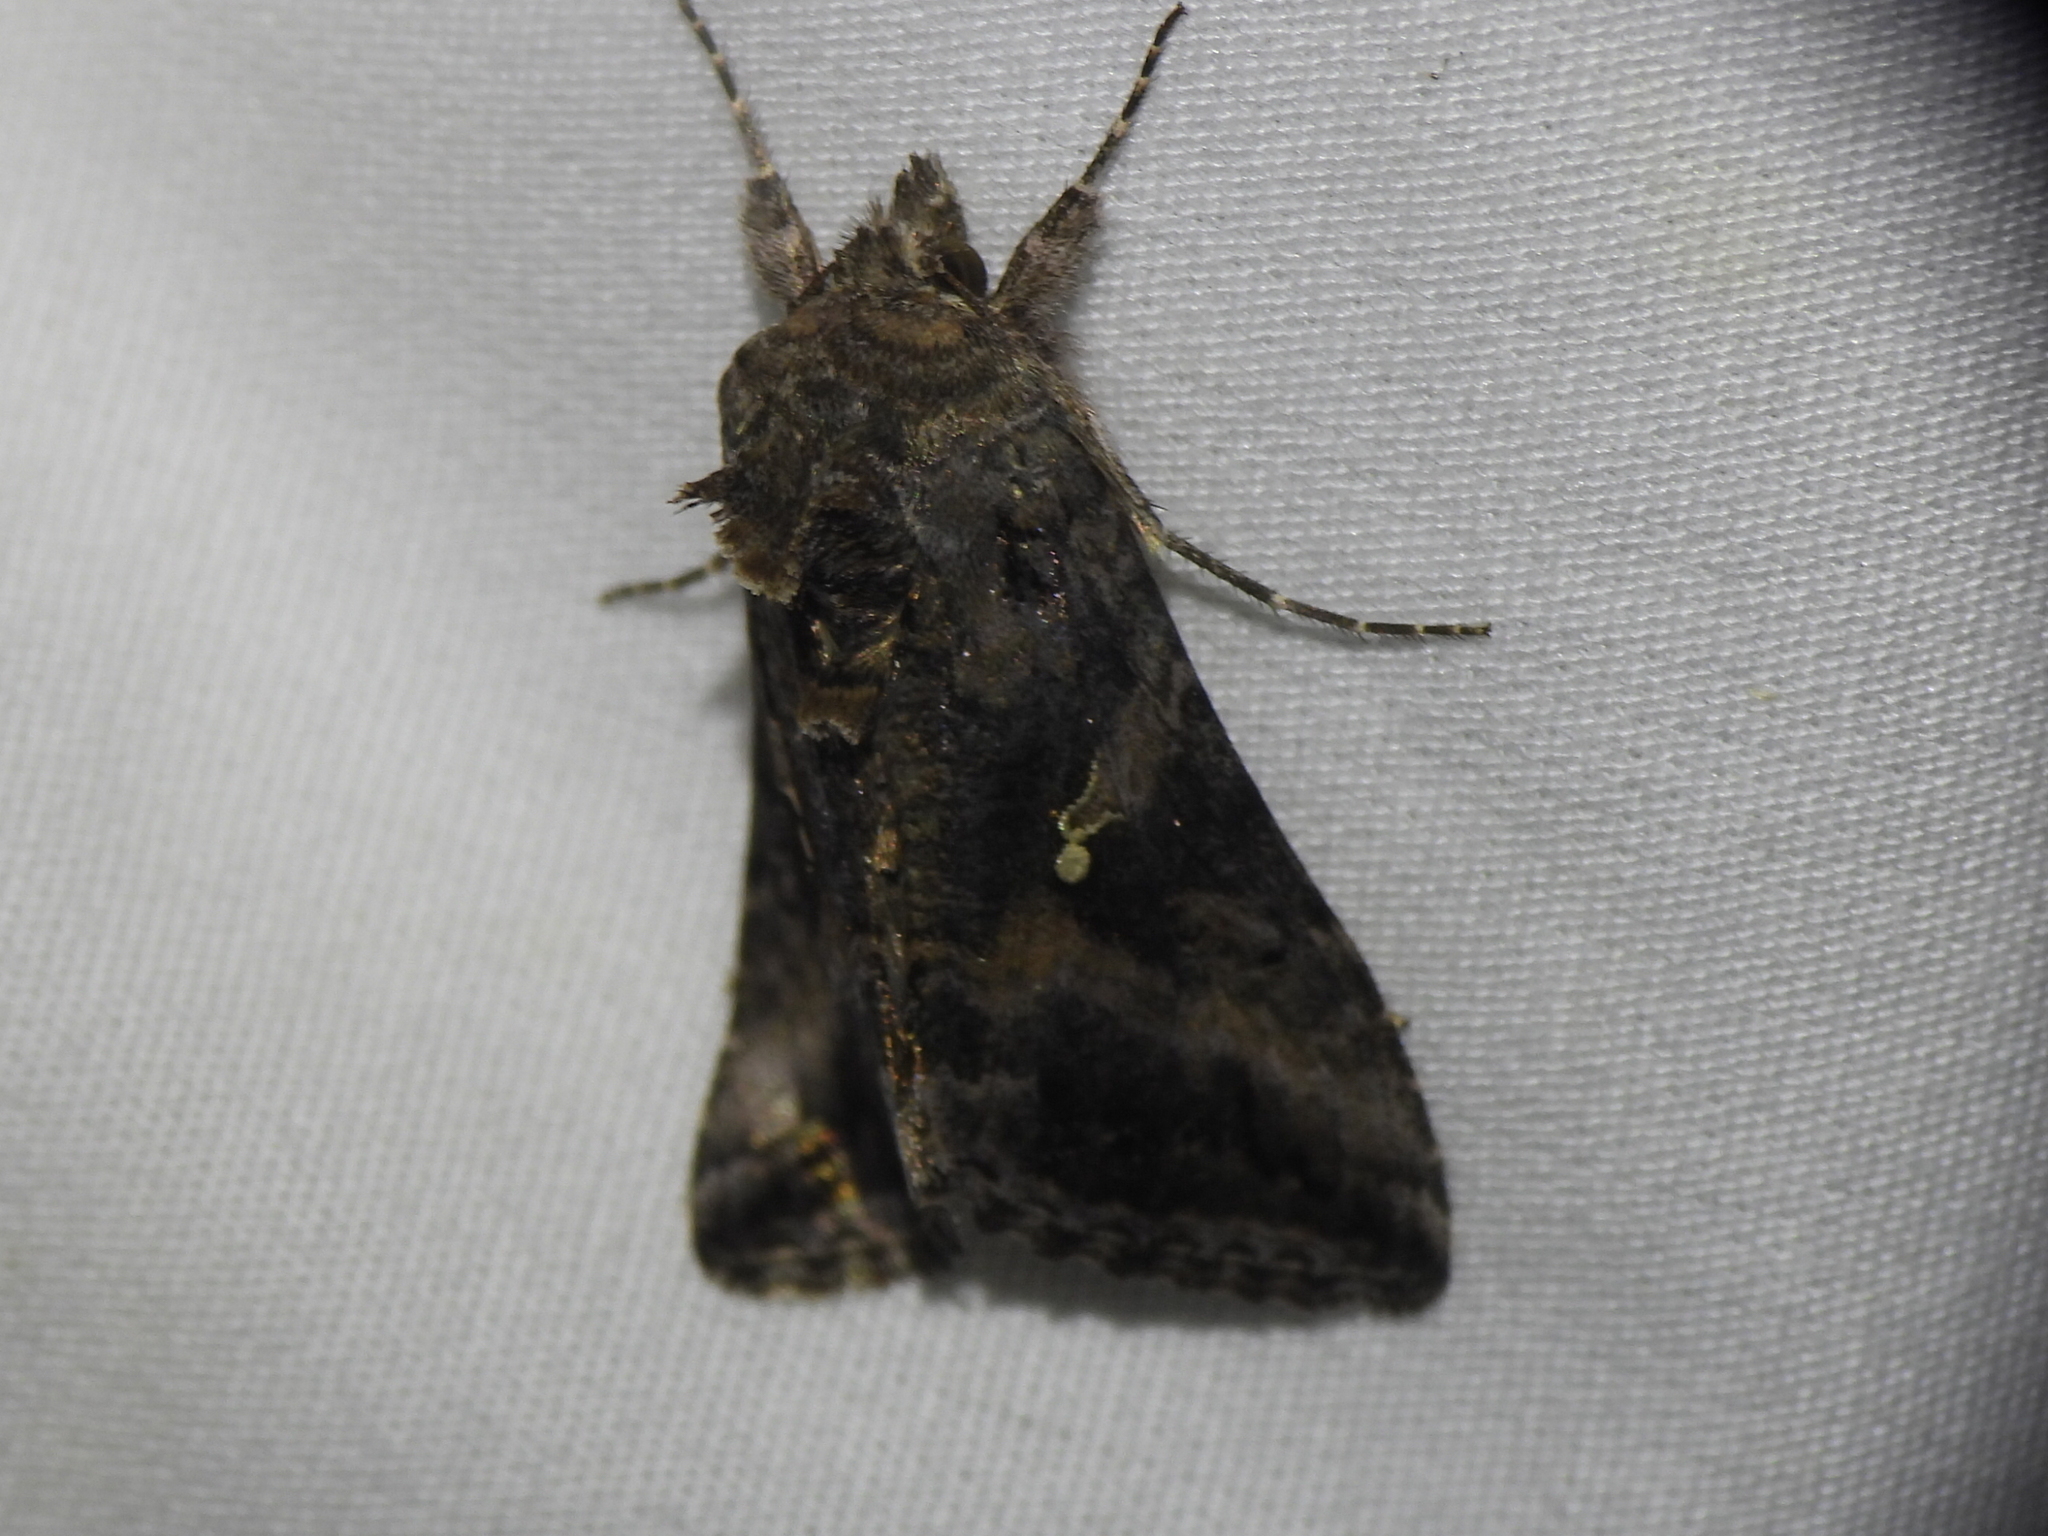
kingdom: Animalia
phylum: Arthropoda
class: Insecta
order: Lepidoptera
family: Noctuidae
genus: Rachiplusia
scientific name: Rachiplusia ou
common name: Gray looper moth
